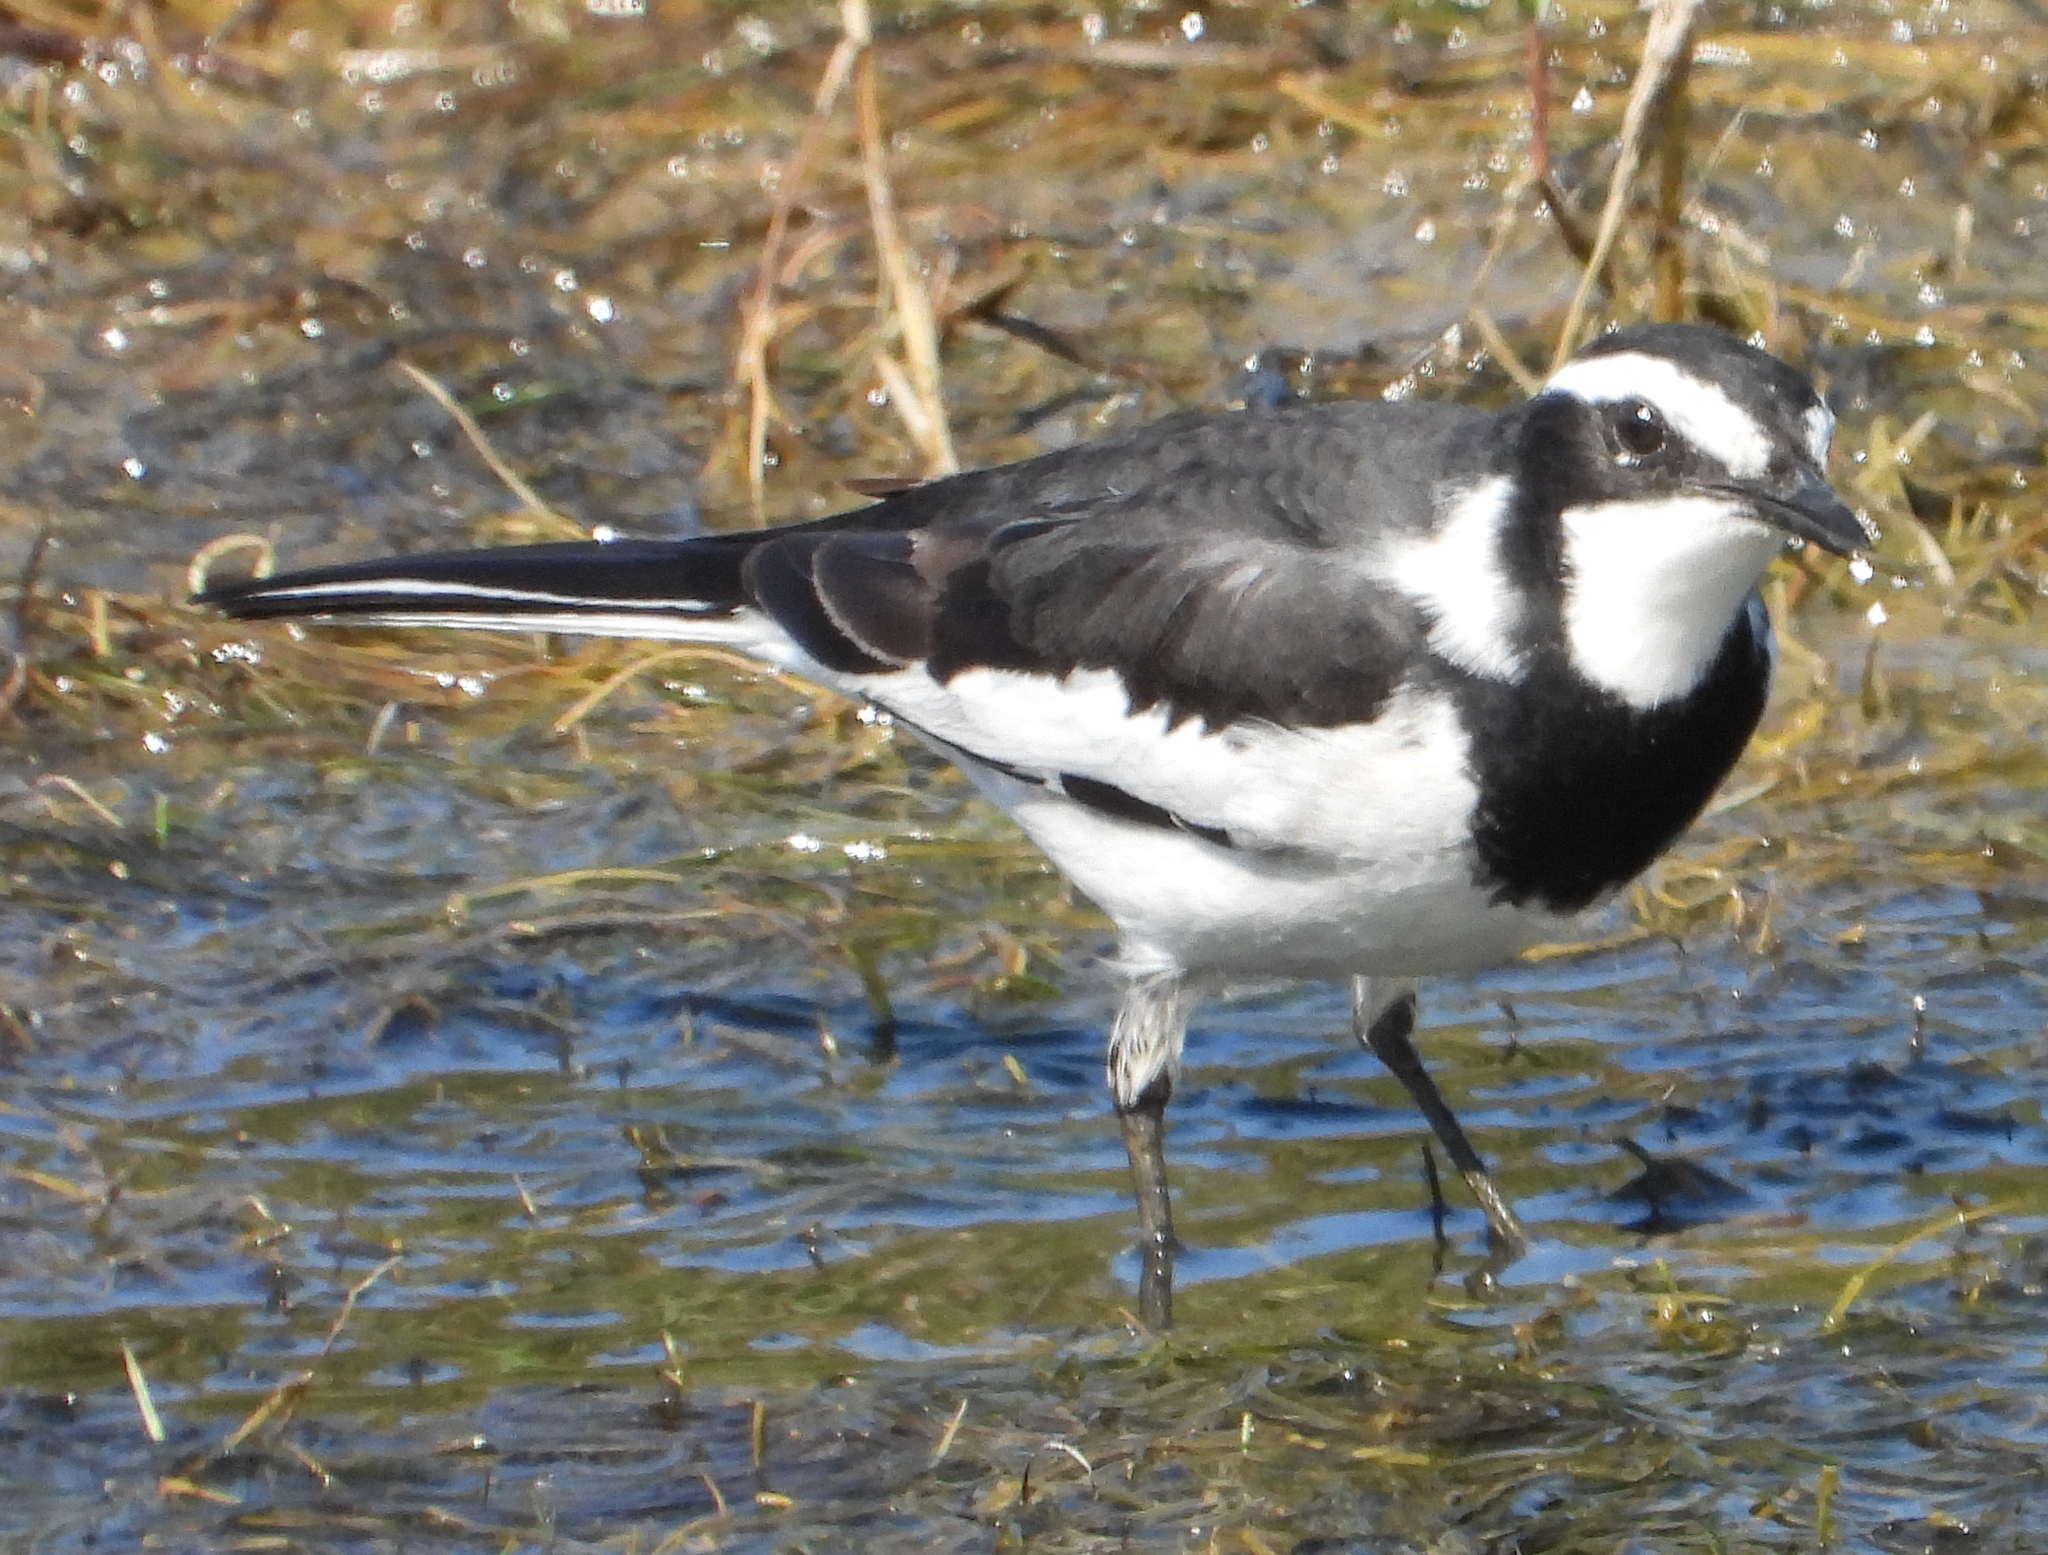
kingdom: Animalia
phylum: Chordata
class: Aves
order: Passeriformes
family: Motacillidae
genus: Motacilla
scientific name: Motacilla aguimp
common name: African pied wagtail
